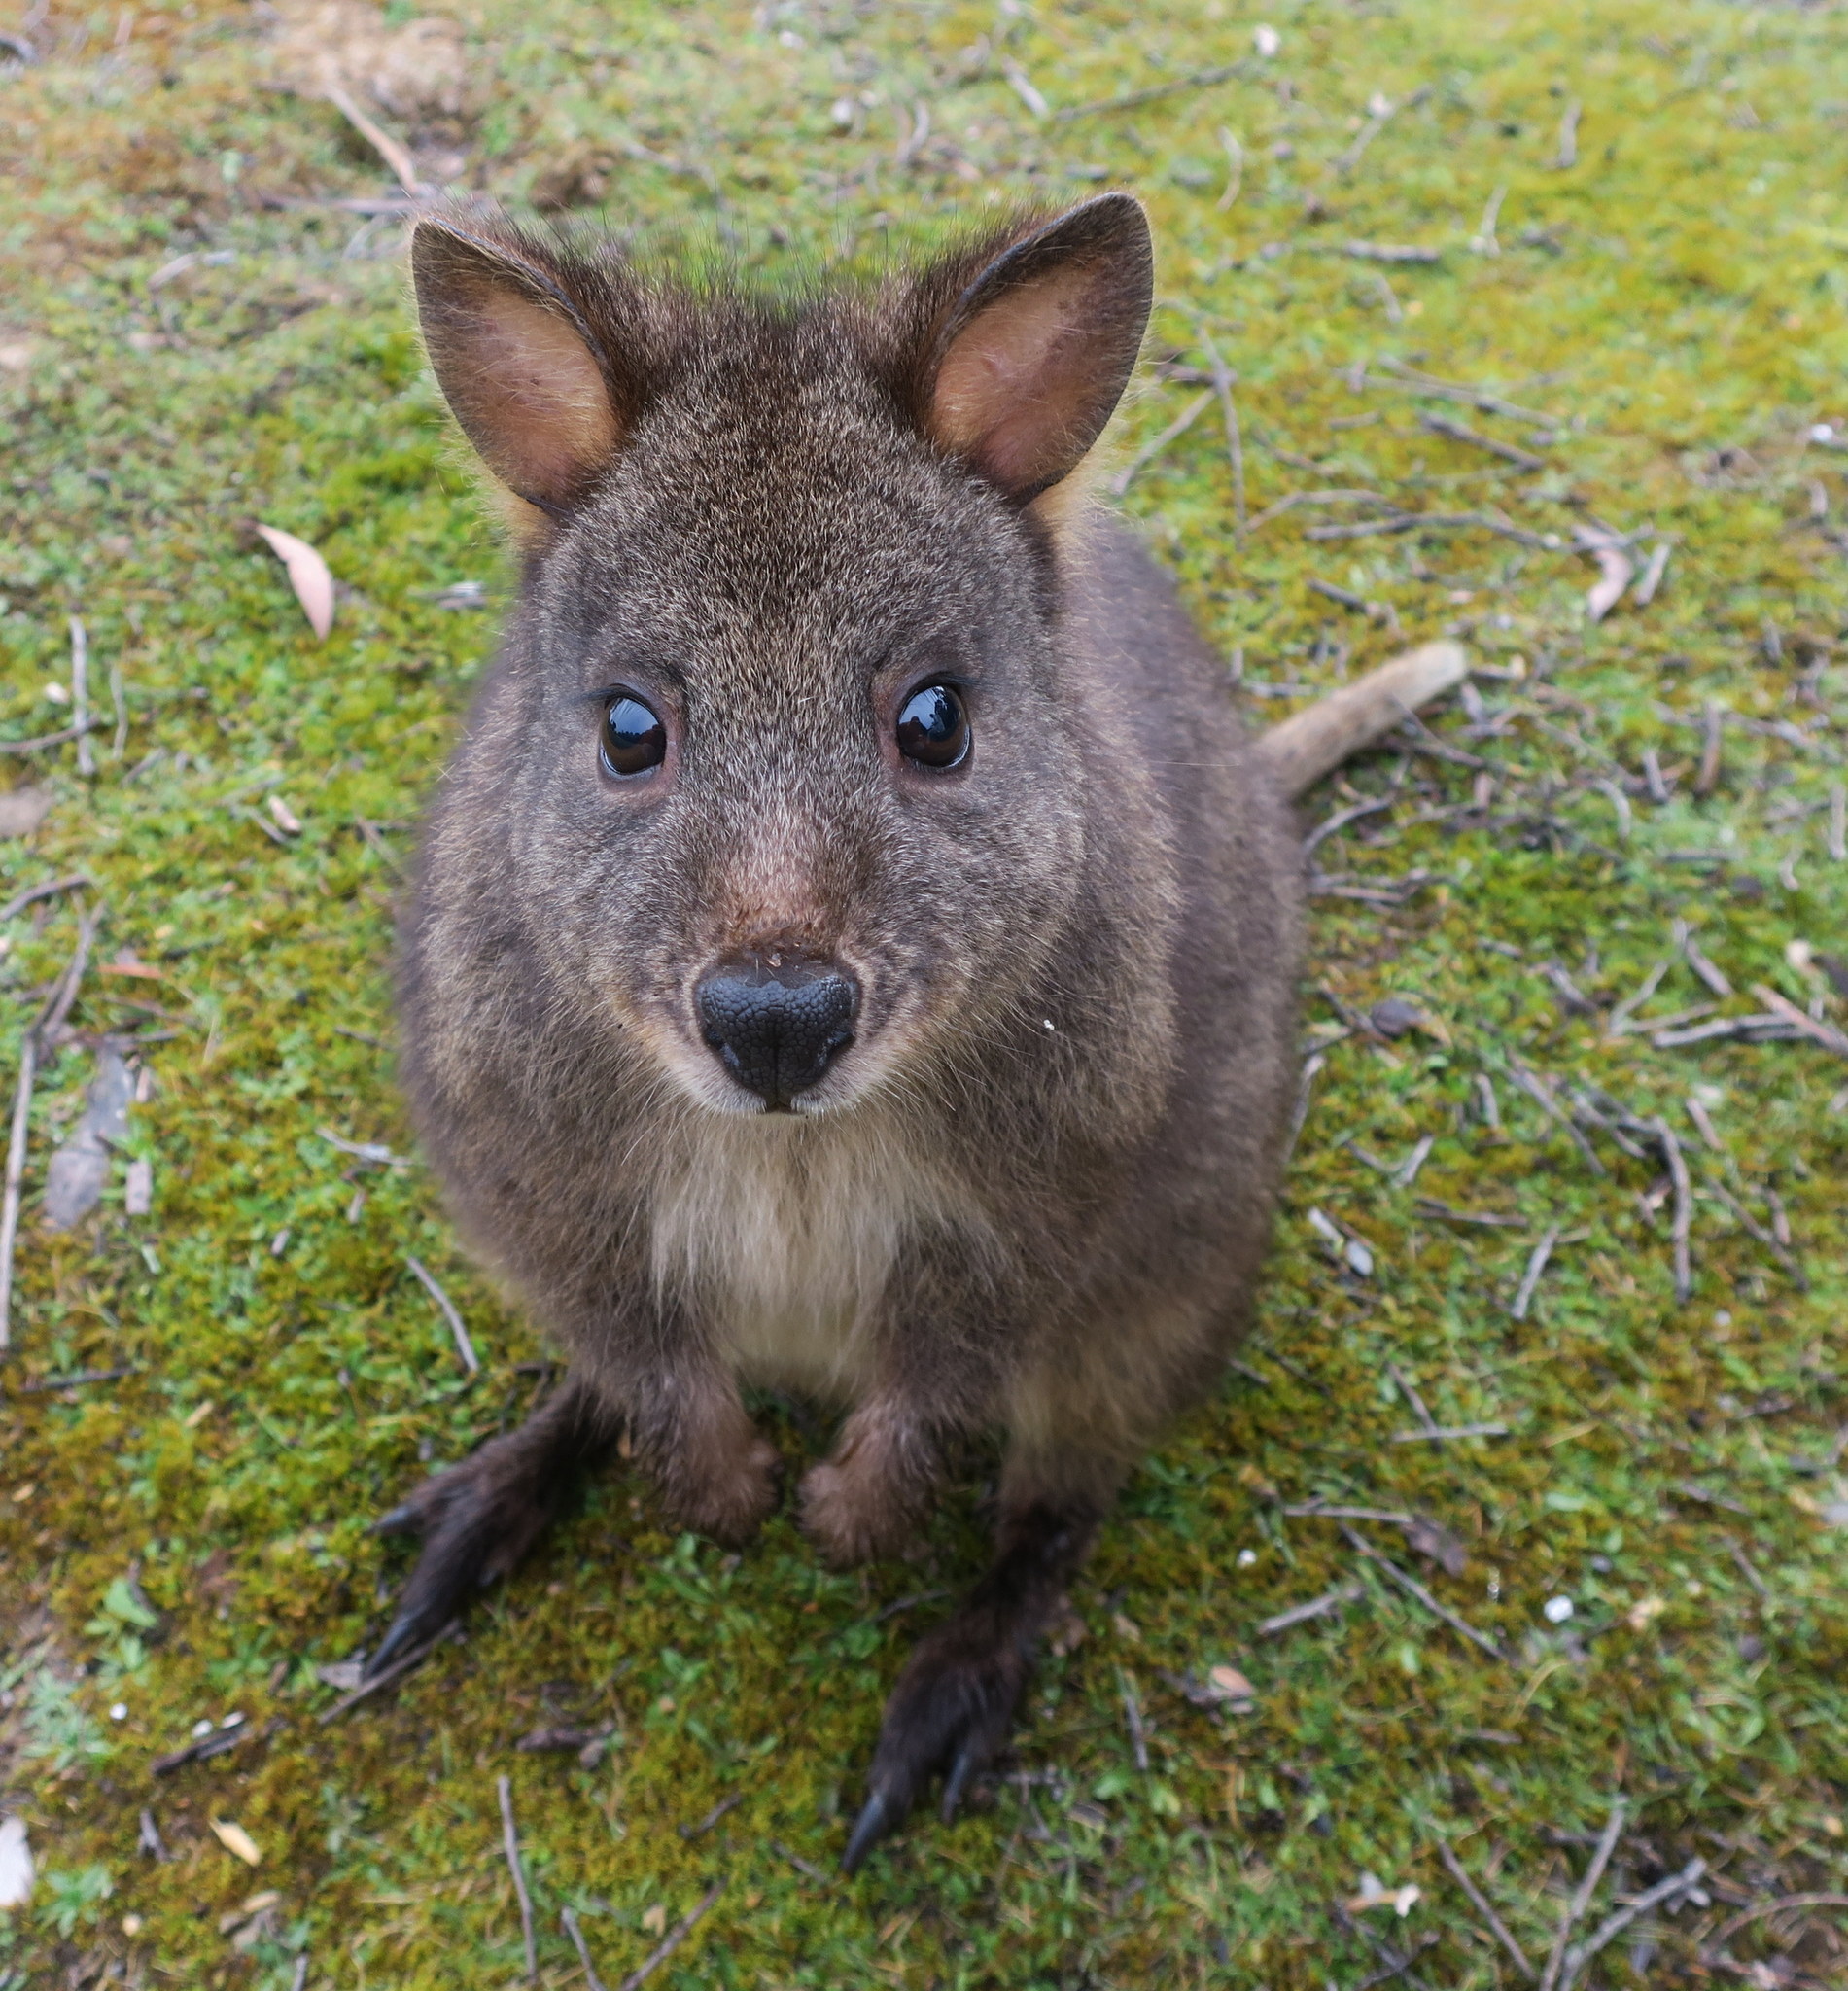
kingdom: Animalia
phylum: Chordata
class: Mammalia
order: Diprotodontia
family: Macropodidae
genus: Thylogale
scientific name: Thylogale billardierii
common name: Tasmanian pademelon
